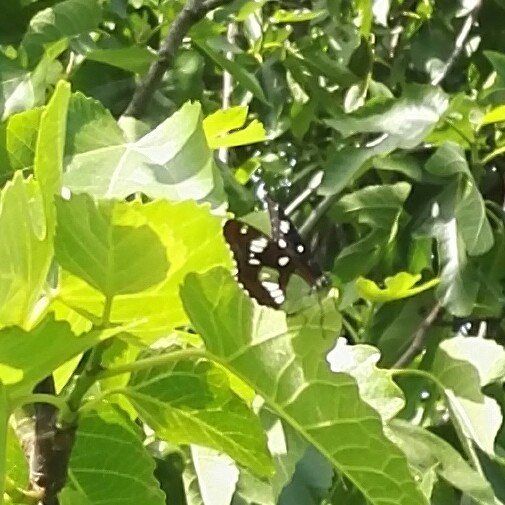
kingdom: Animalia
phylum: Arthropoda
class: Insecta
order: Lepidoptera
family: Nymphalidae
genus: Limenitis
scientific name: Limenitis reducta
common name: Southern white admiral
